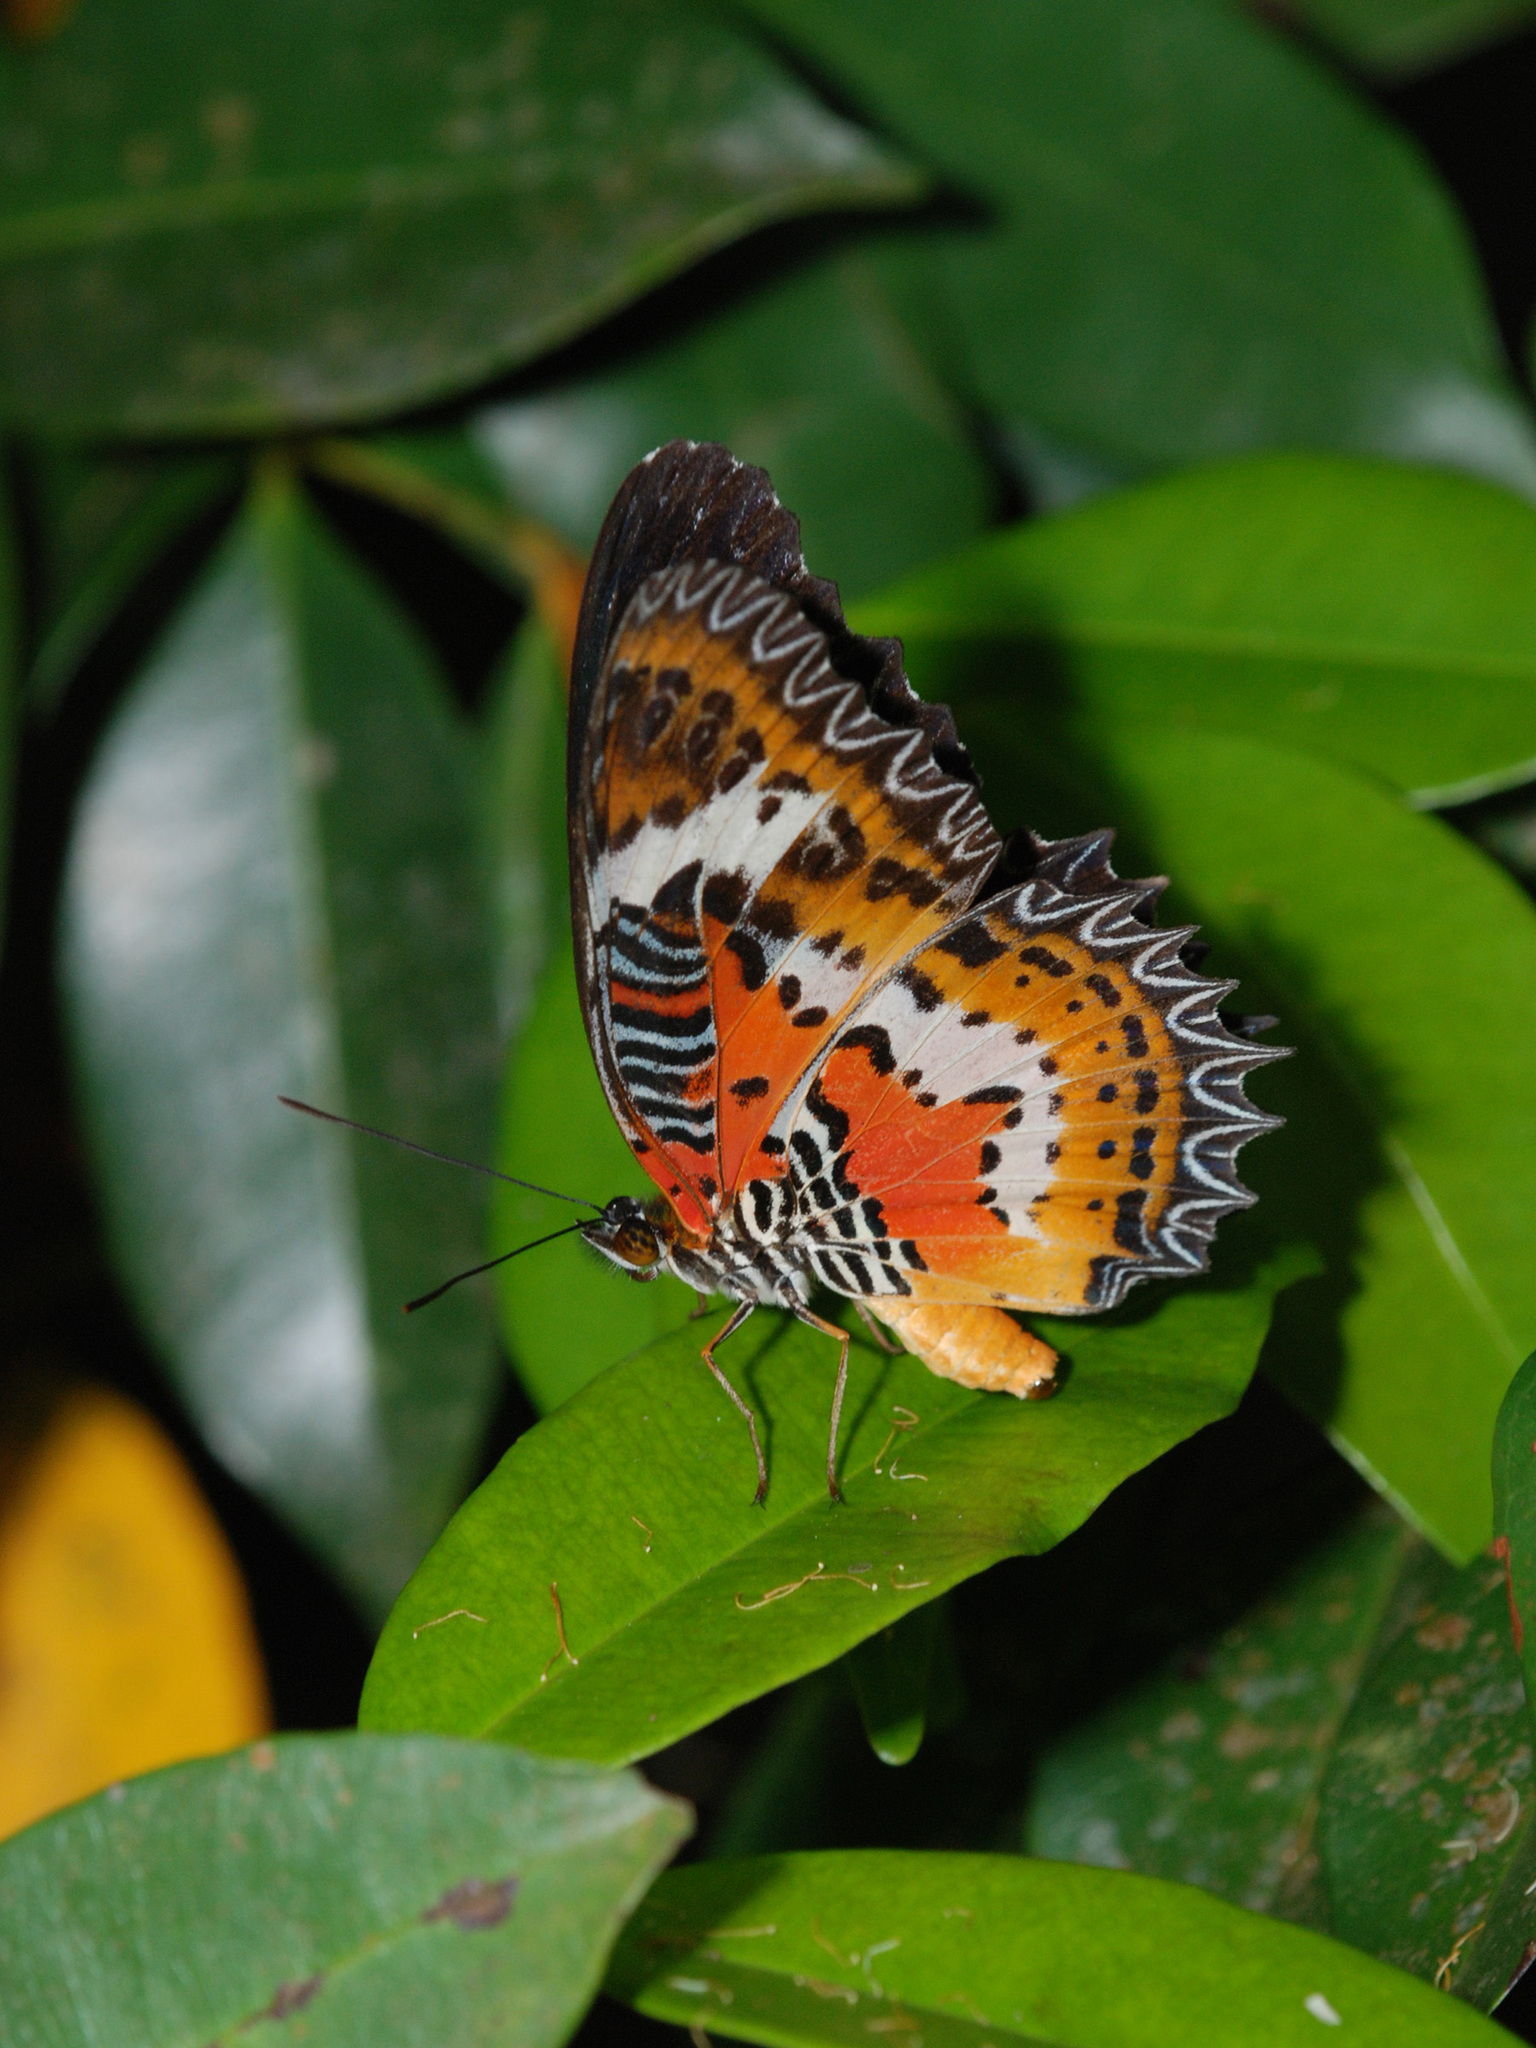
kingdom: Animalia
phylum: Arthropoda
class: Insecta
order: Lepidoptera
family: Nymphalidae
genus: Cethosia
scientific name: Cethosia hypsea
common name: Malayan lacewing butterfly
